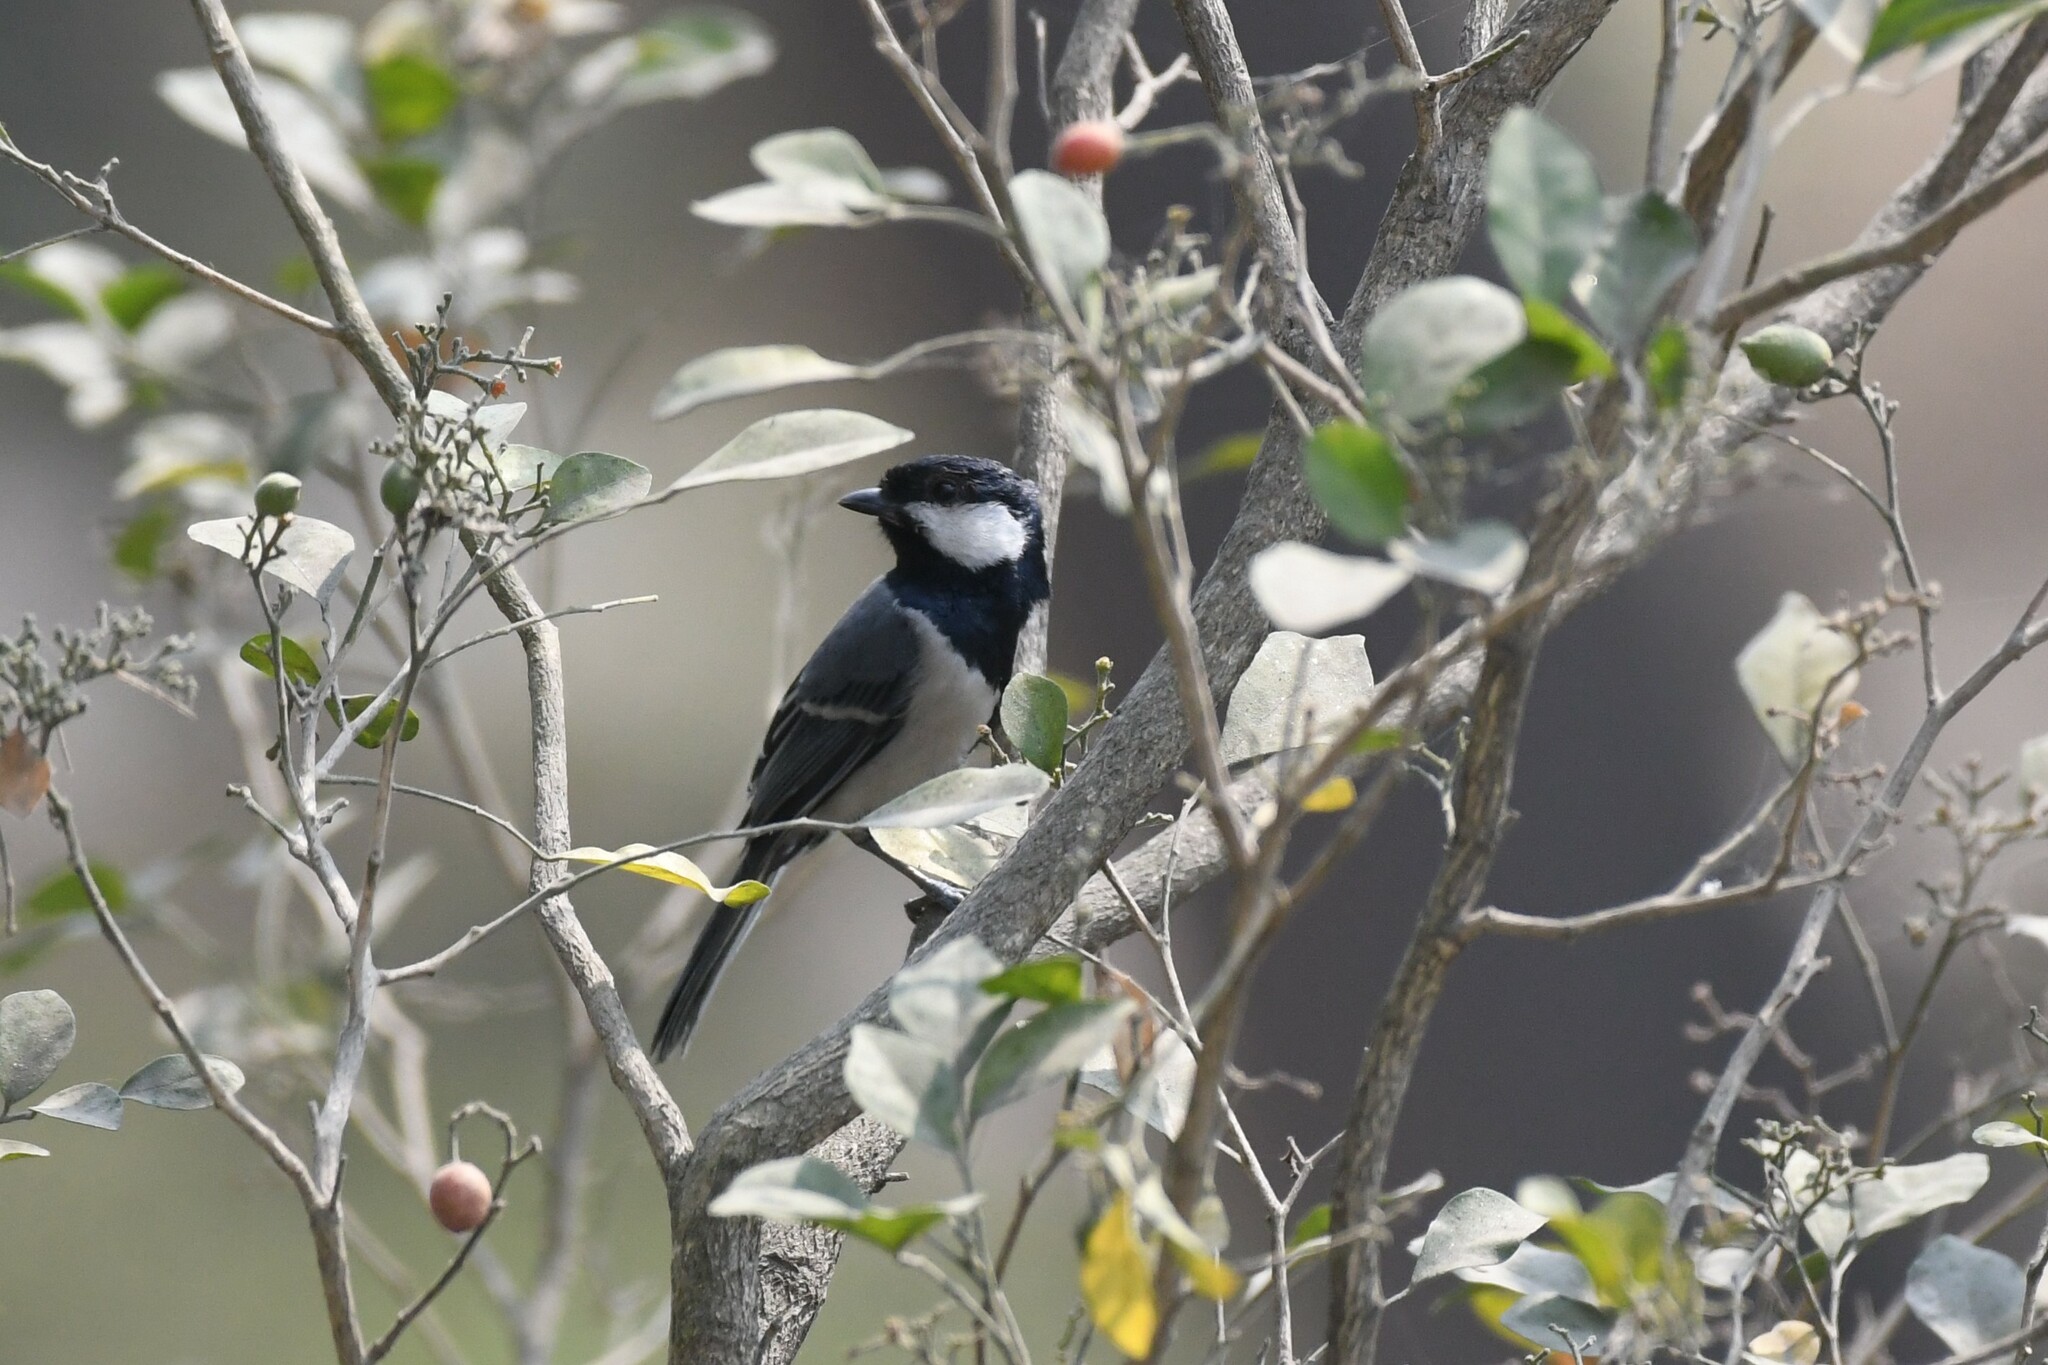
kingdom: Animalia
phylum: Chordata
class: Aves
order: Passeriformes
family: Paridae
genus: Parus
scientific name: Parus cinereus
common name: Cinereous tit
